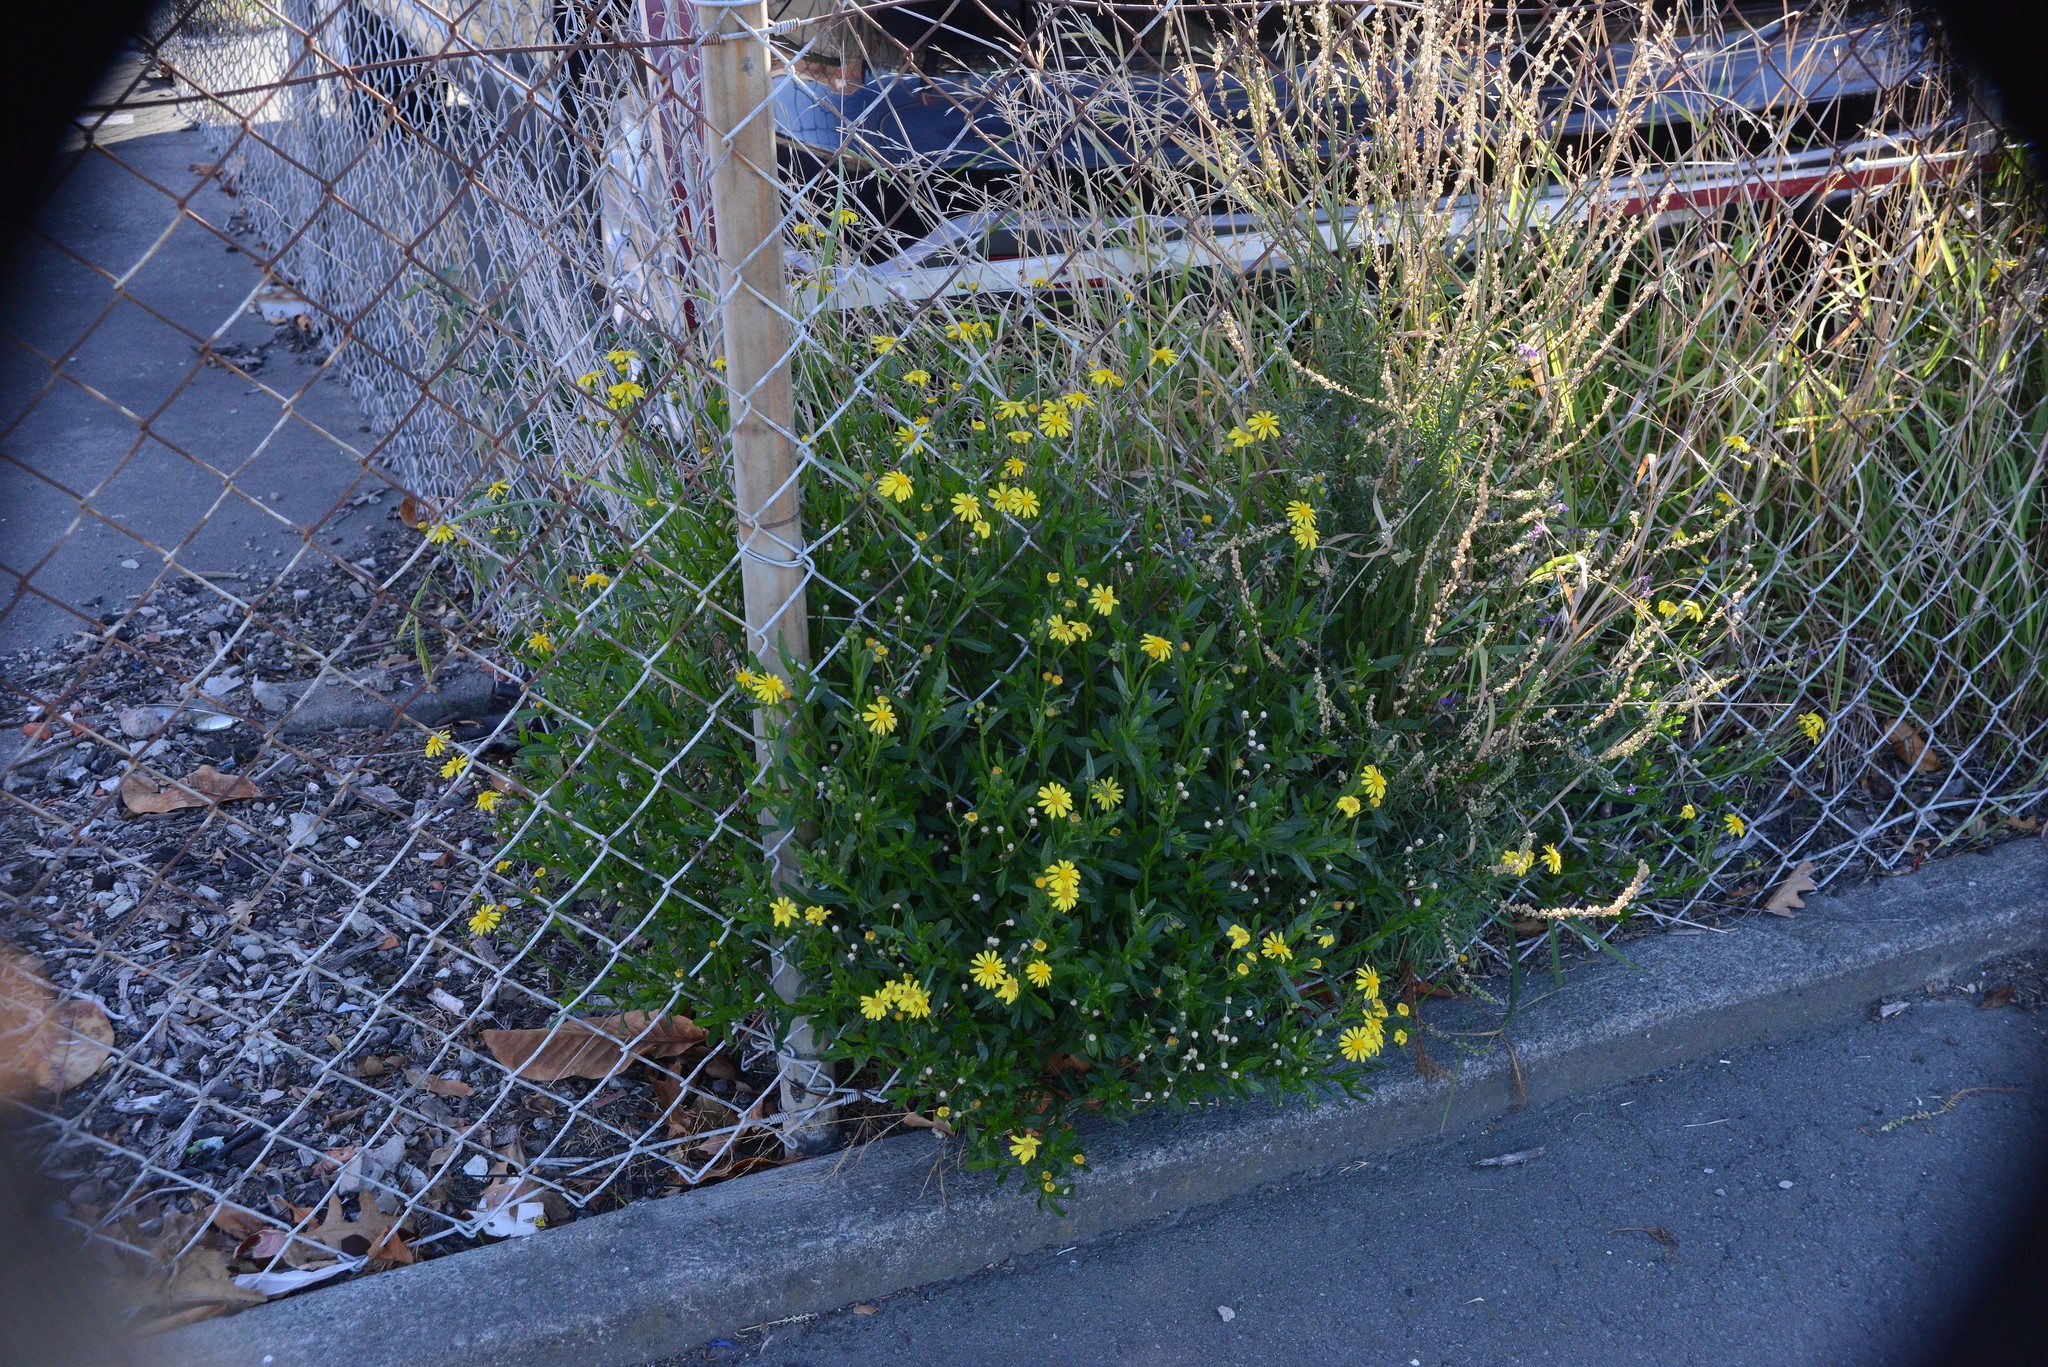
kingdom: Plantae
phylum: Tracheophyta
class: Magnoliopsida
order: Asterales
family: Asteraceae
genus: Senecio
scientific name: Senecio skirrhodon
